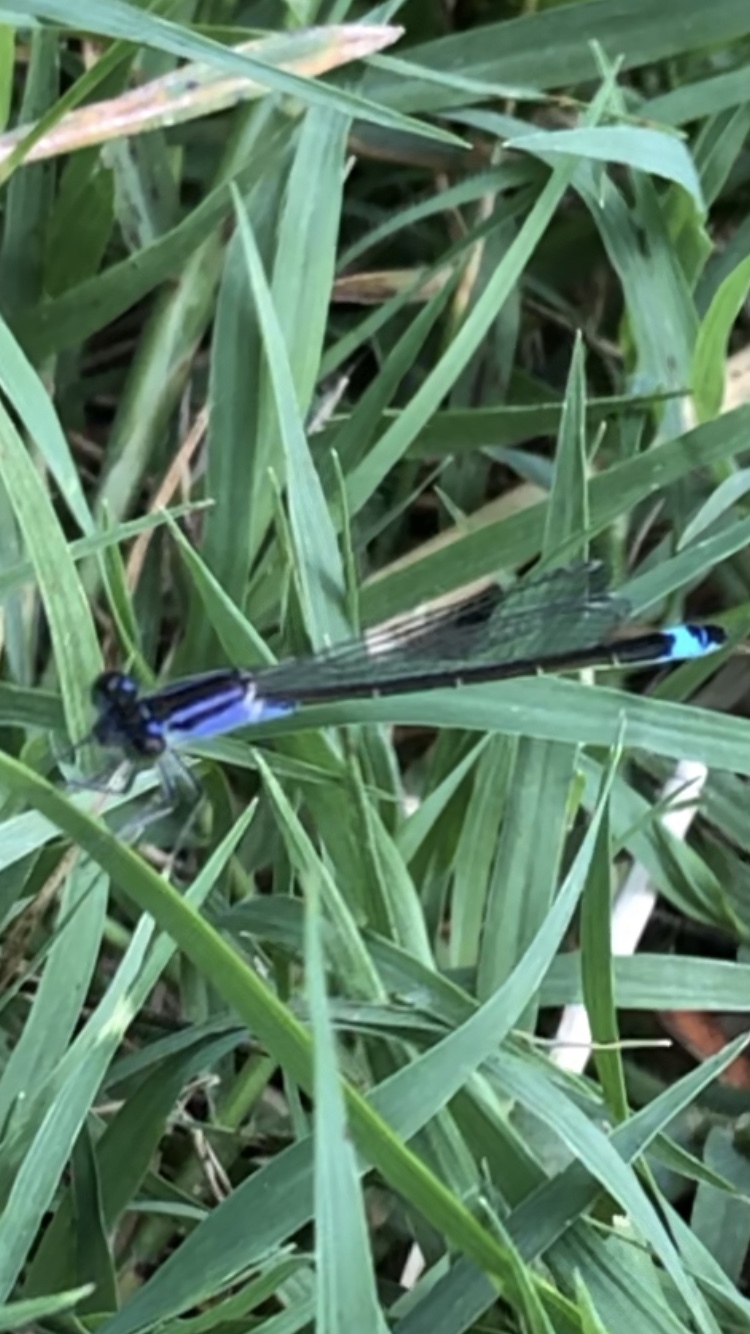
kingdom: Animalia
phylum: Arthropoda
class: Insecta
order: Odonata
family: Coenagrionidae
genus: Ischnura
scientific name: Ischnura elegans
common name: Blue-tailed damselfly
